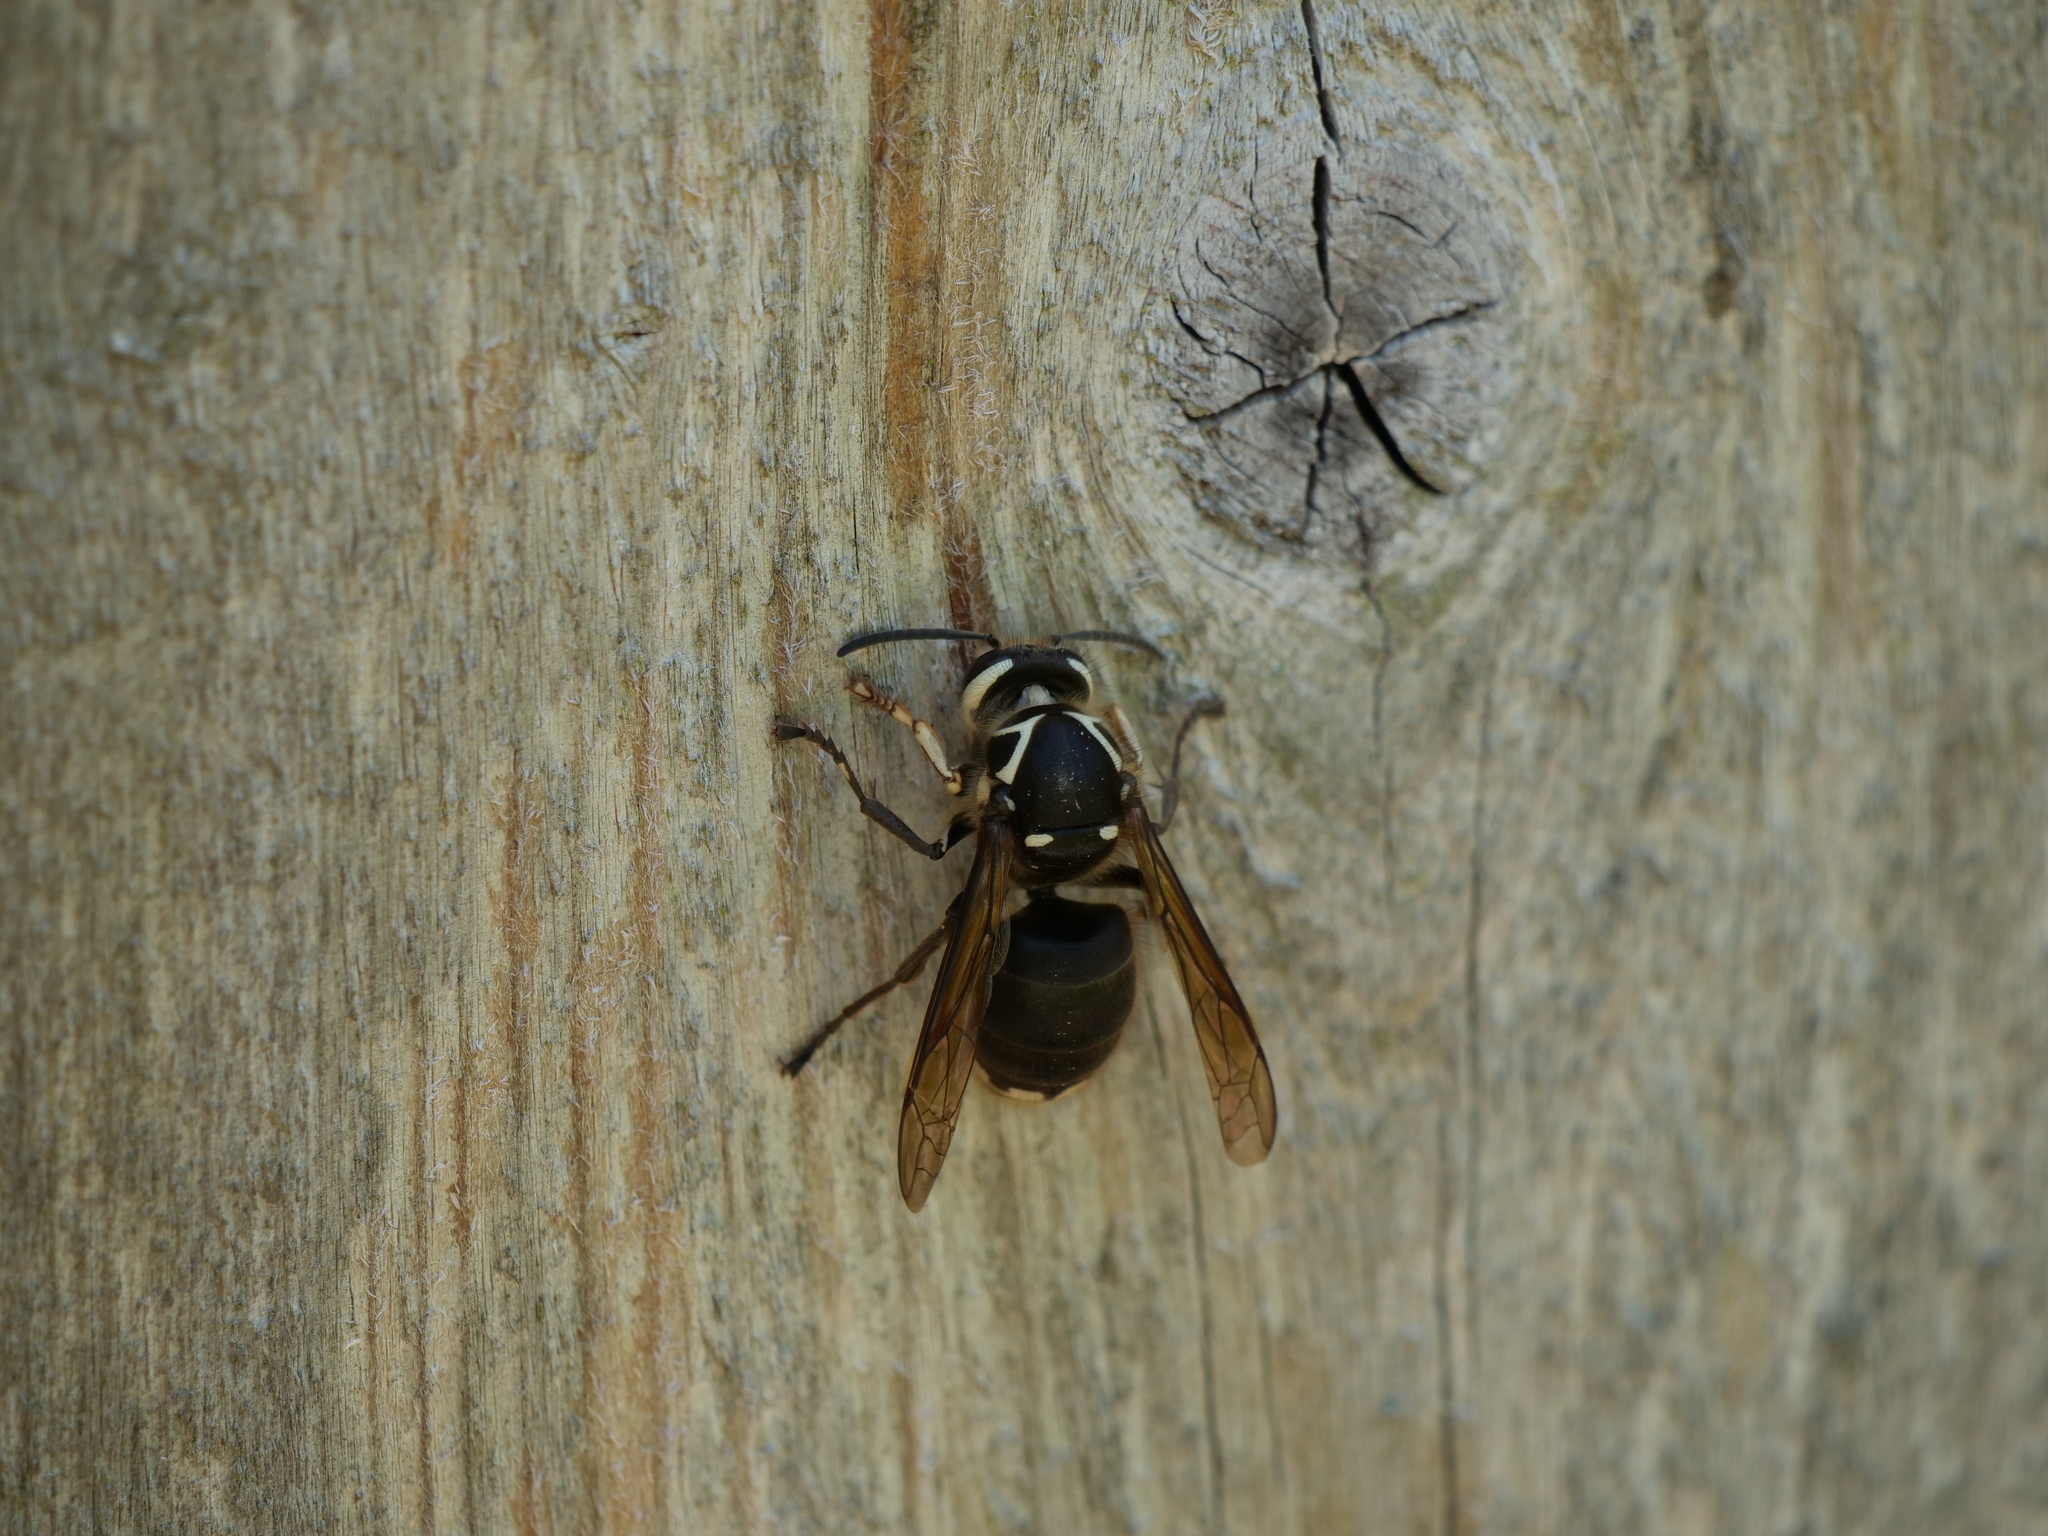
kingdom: Animalia
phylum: Arthropoda
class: Insecta
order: Hymenoptera
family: Vespidae
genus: Dolichovespula
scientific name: Dolichovespula maculata
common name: Bald-faced hornet
